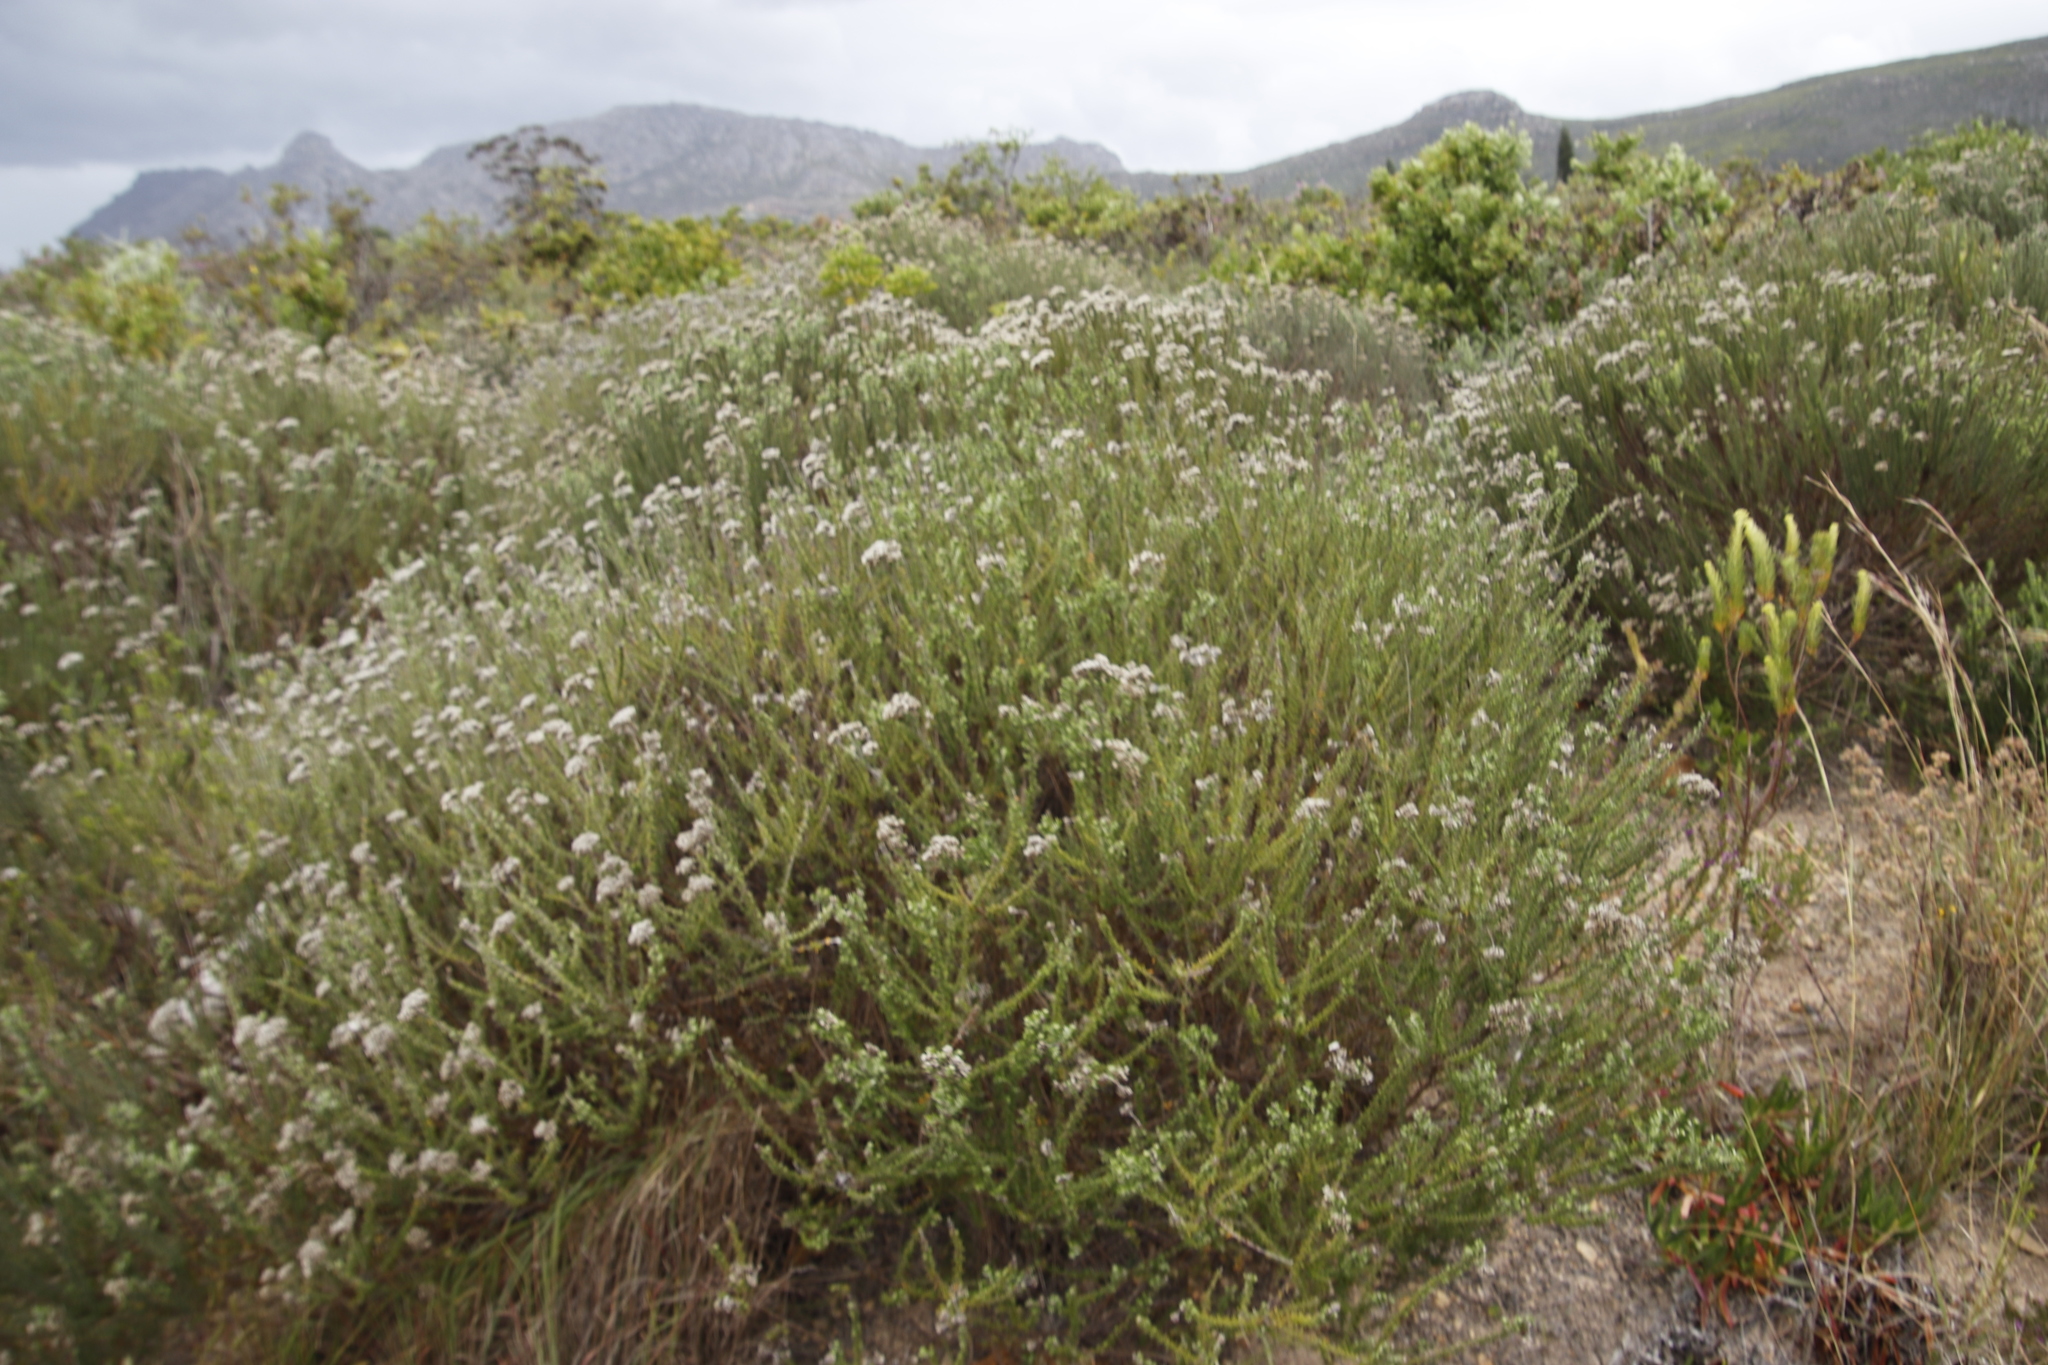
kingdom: Plantae
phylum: Tracheophyta
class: Magnoliopsida
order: Asterales
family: Asteraceae
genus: Metalasia
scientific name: Metalasia densa
